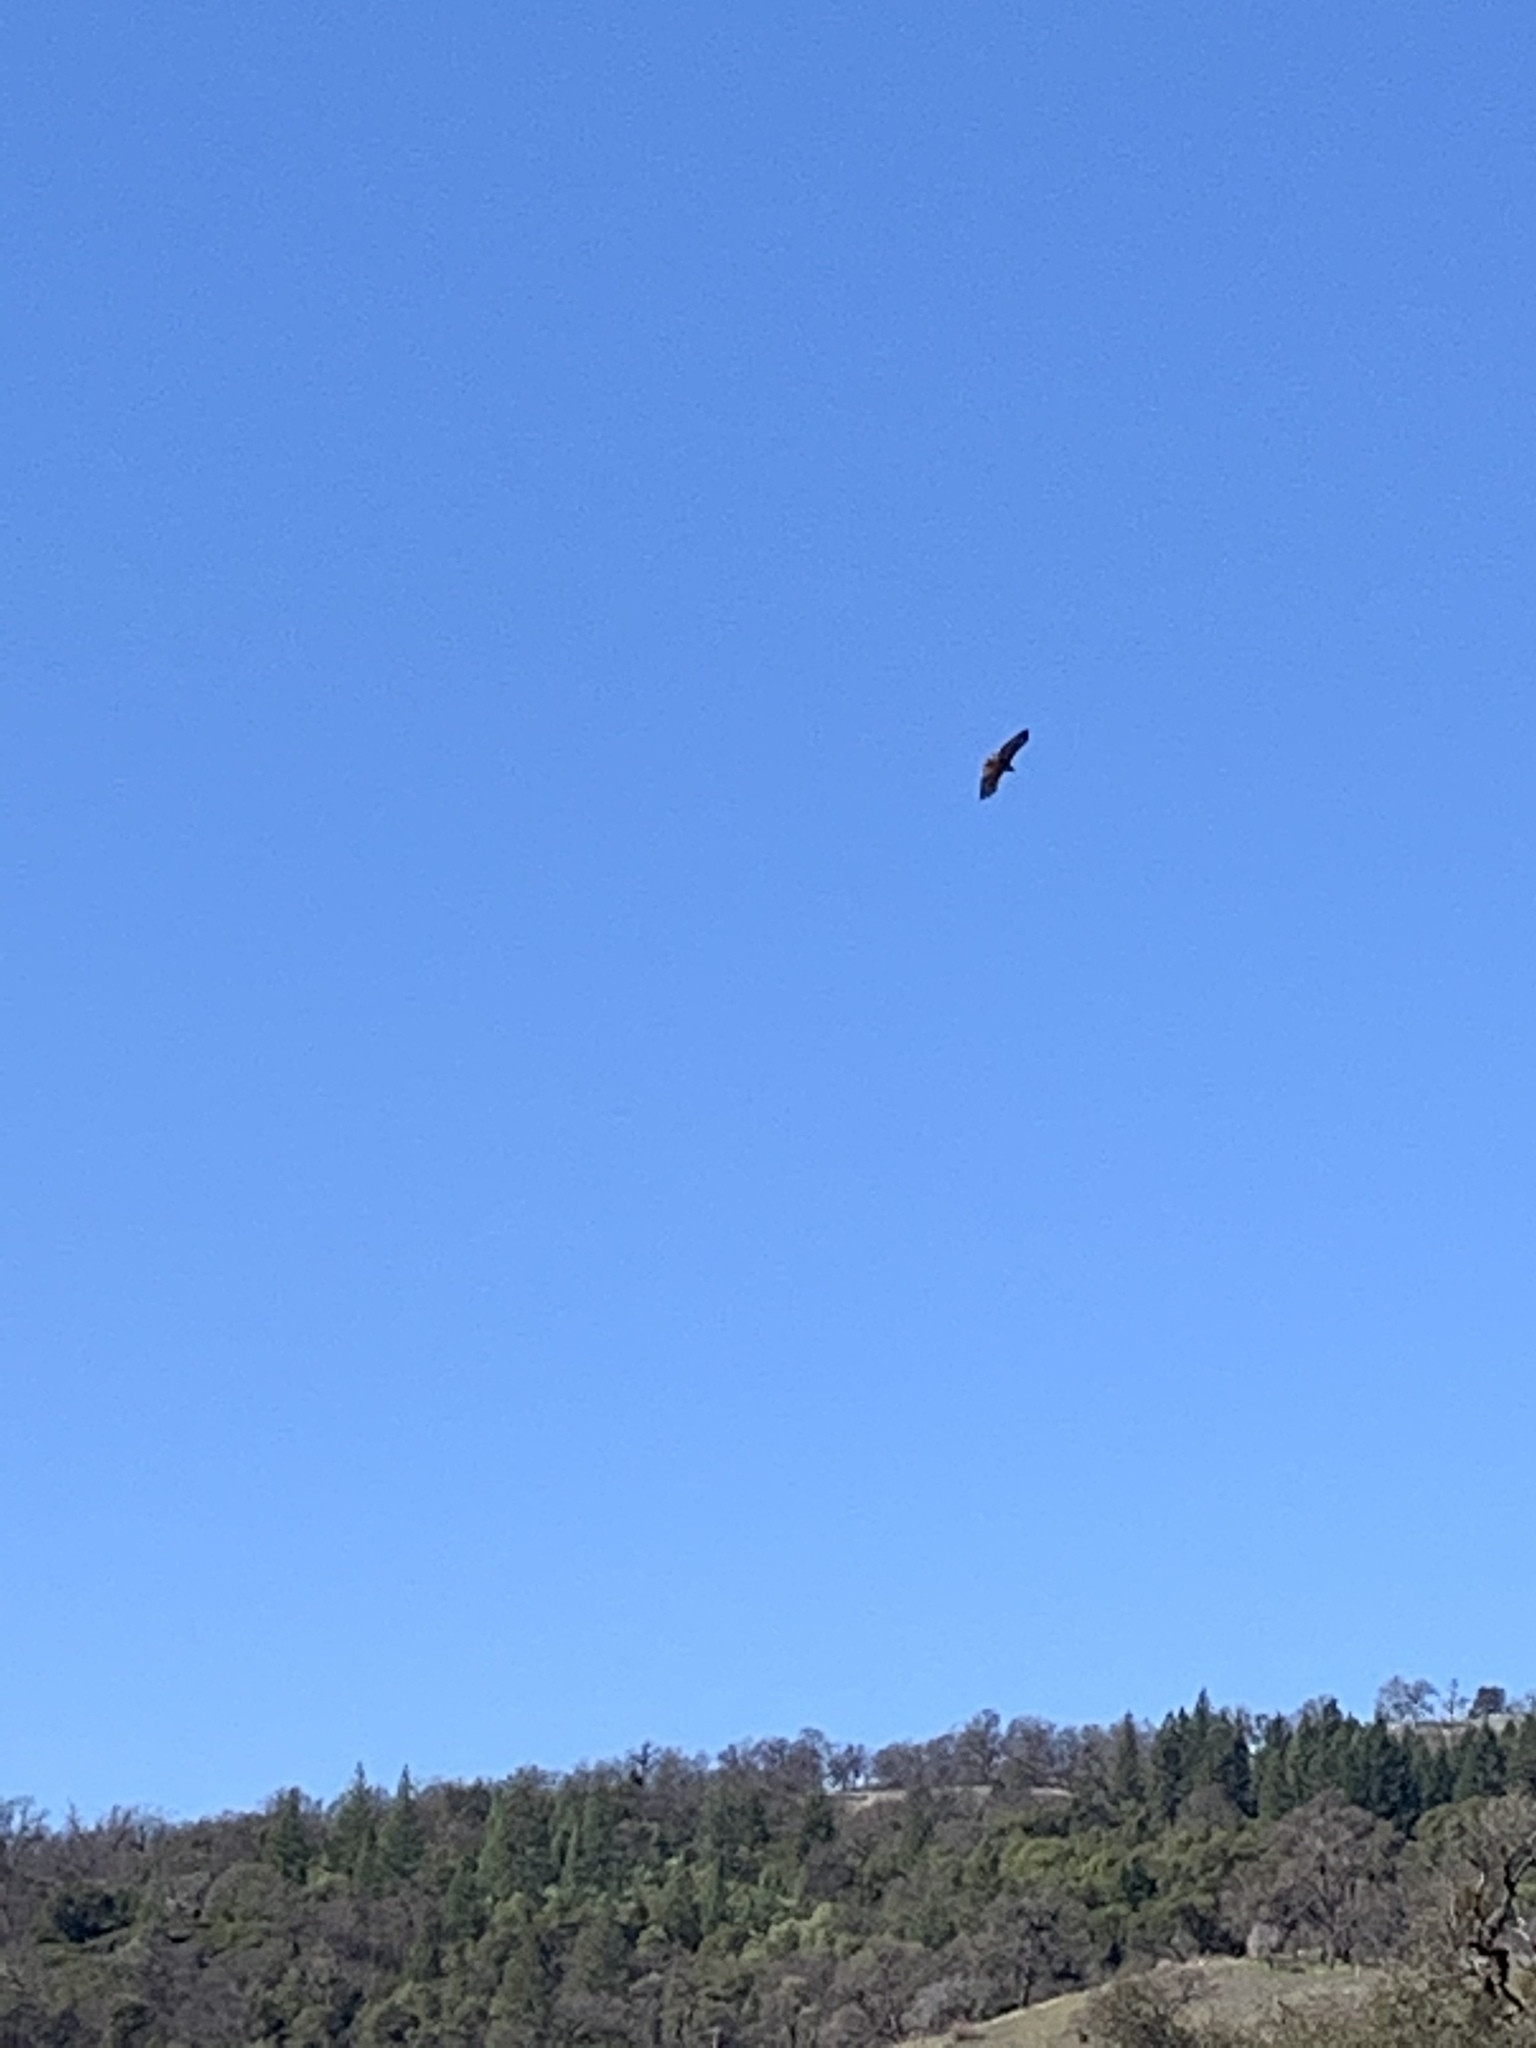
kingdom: Animalia
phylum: Chordata
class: Aves
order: Accipitriformes
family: Accipitridae
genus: Buteo
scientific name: Buteo jamaicensis
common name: Red-tailed hawk
